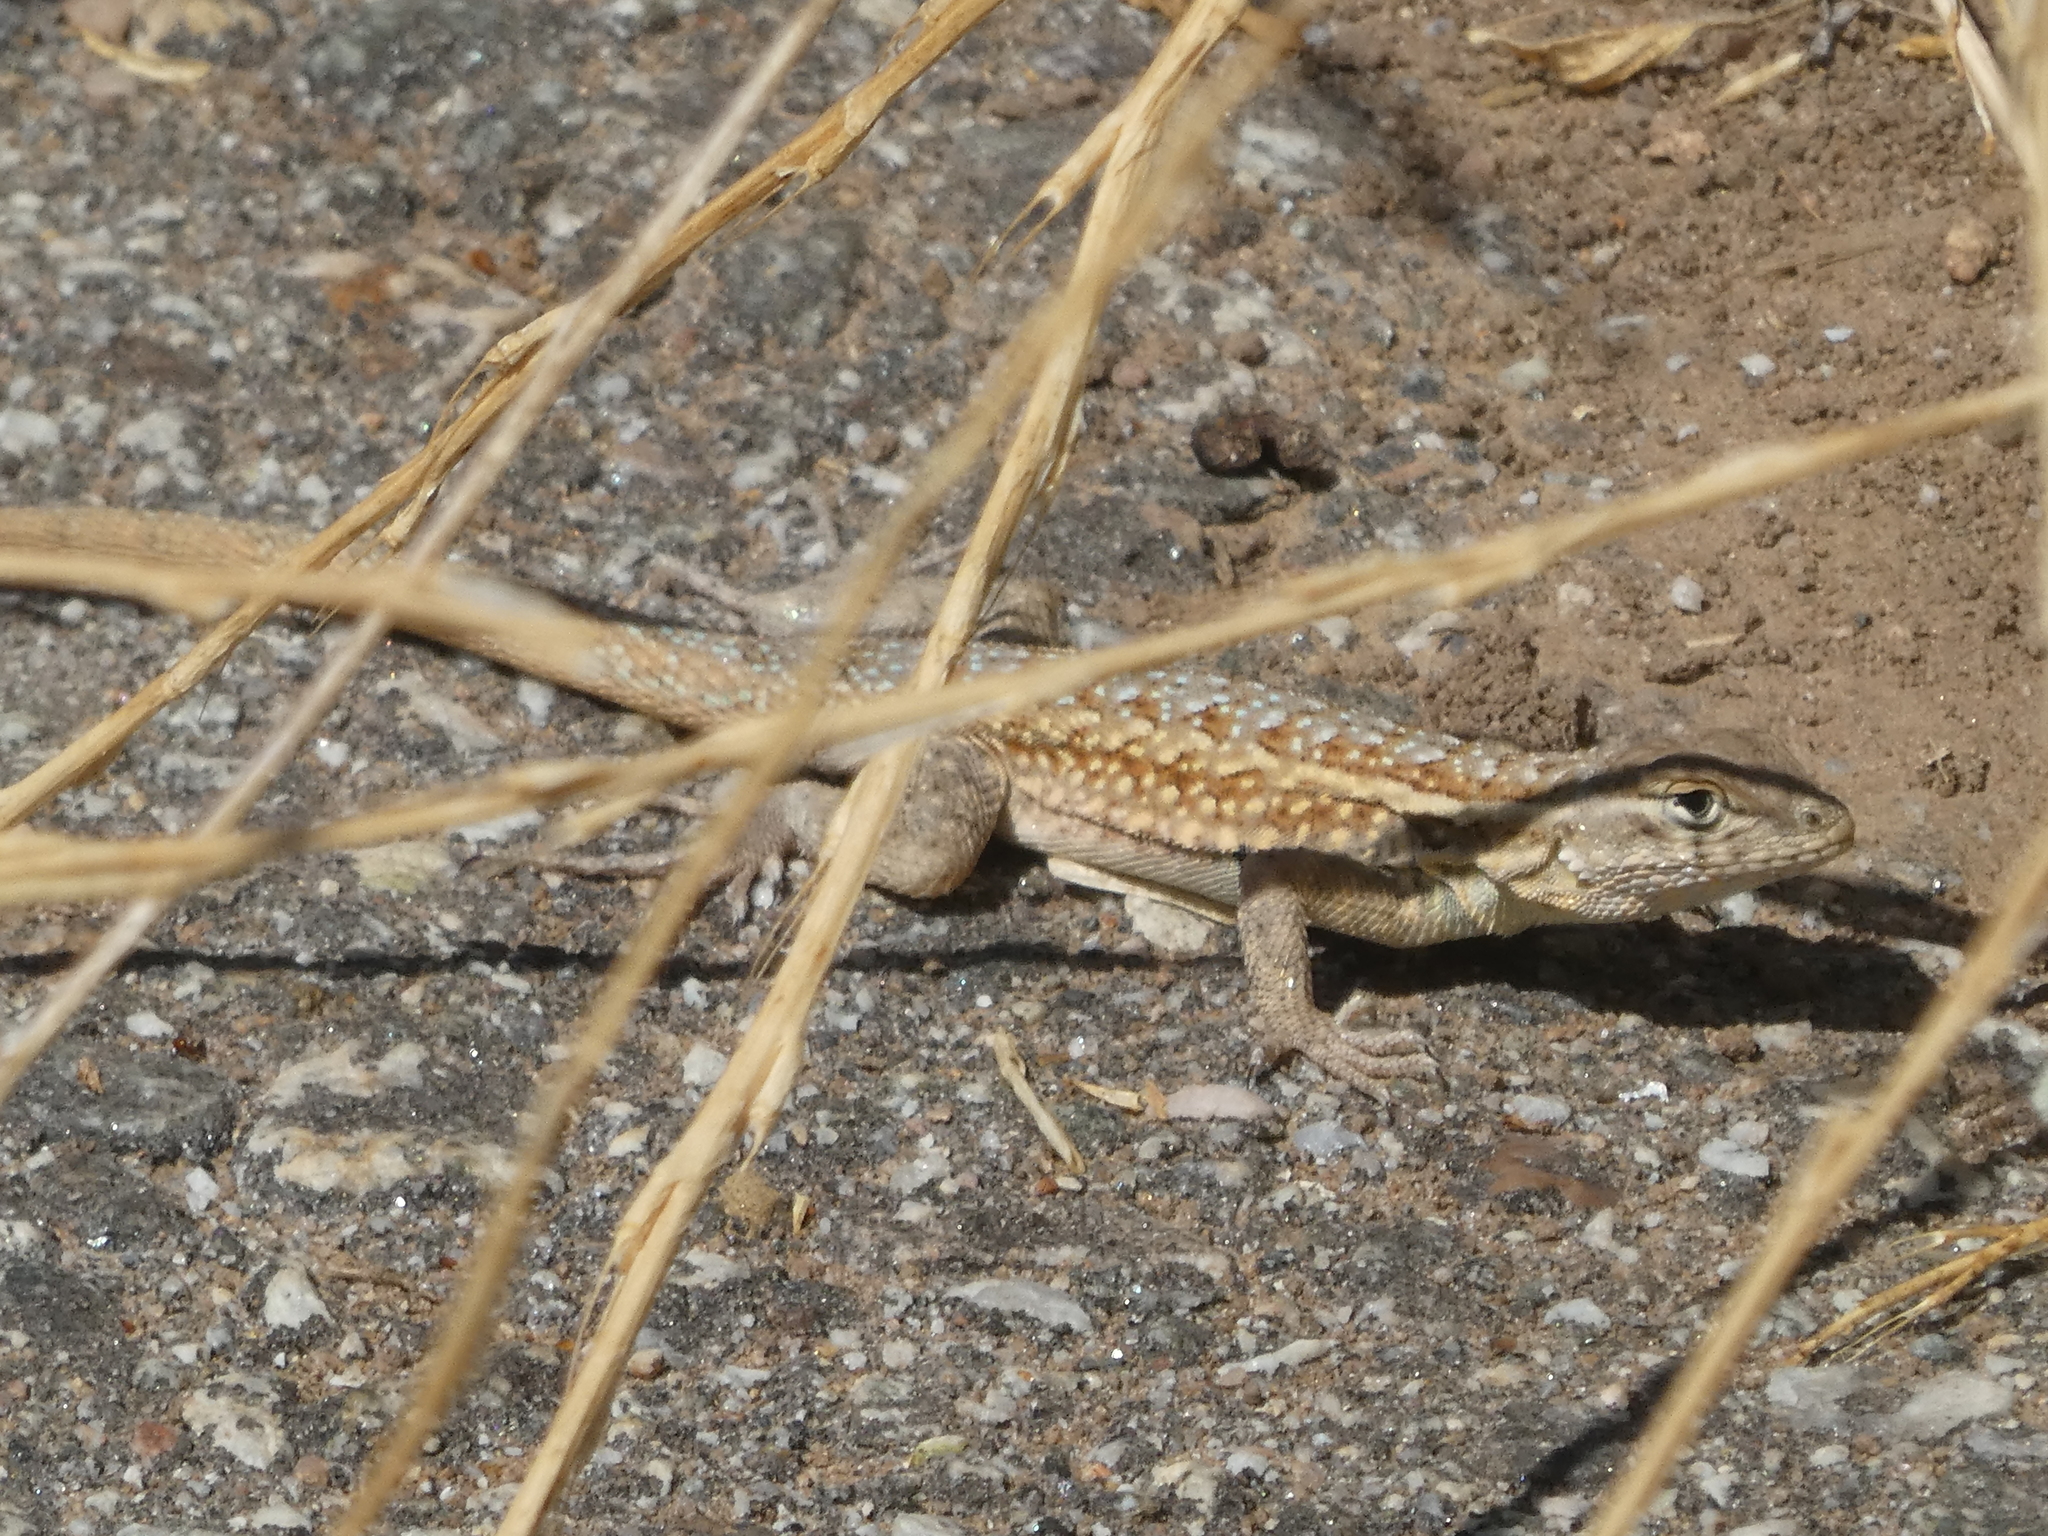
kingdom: Animalia
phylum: Chordata
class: Squamata
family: Phrynosomatidae
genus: Uta
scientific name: Uta stansburiana
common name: Side-blotched lizard
